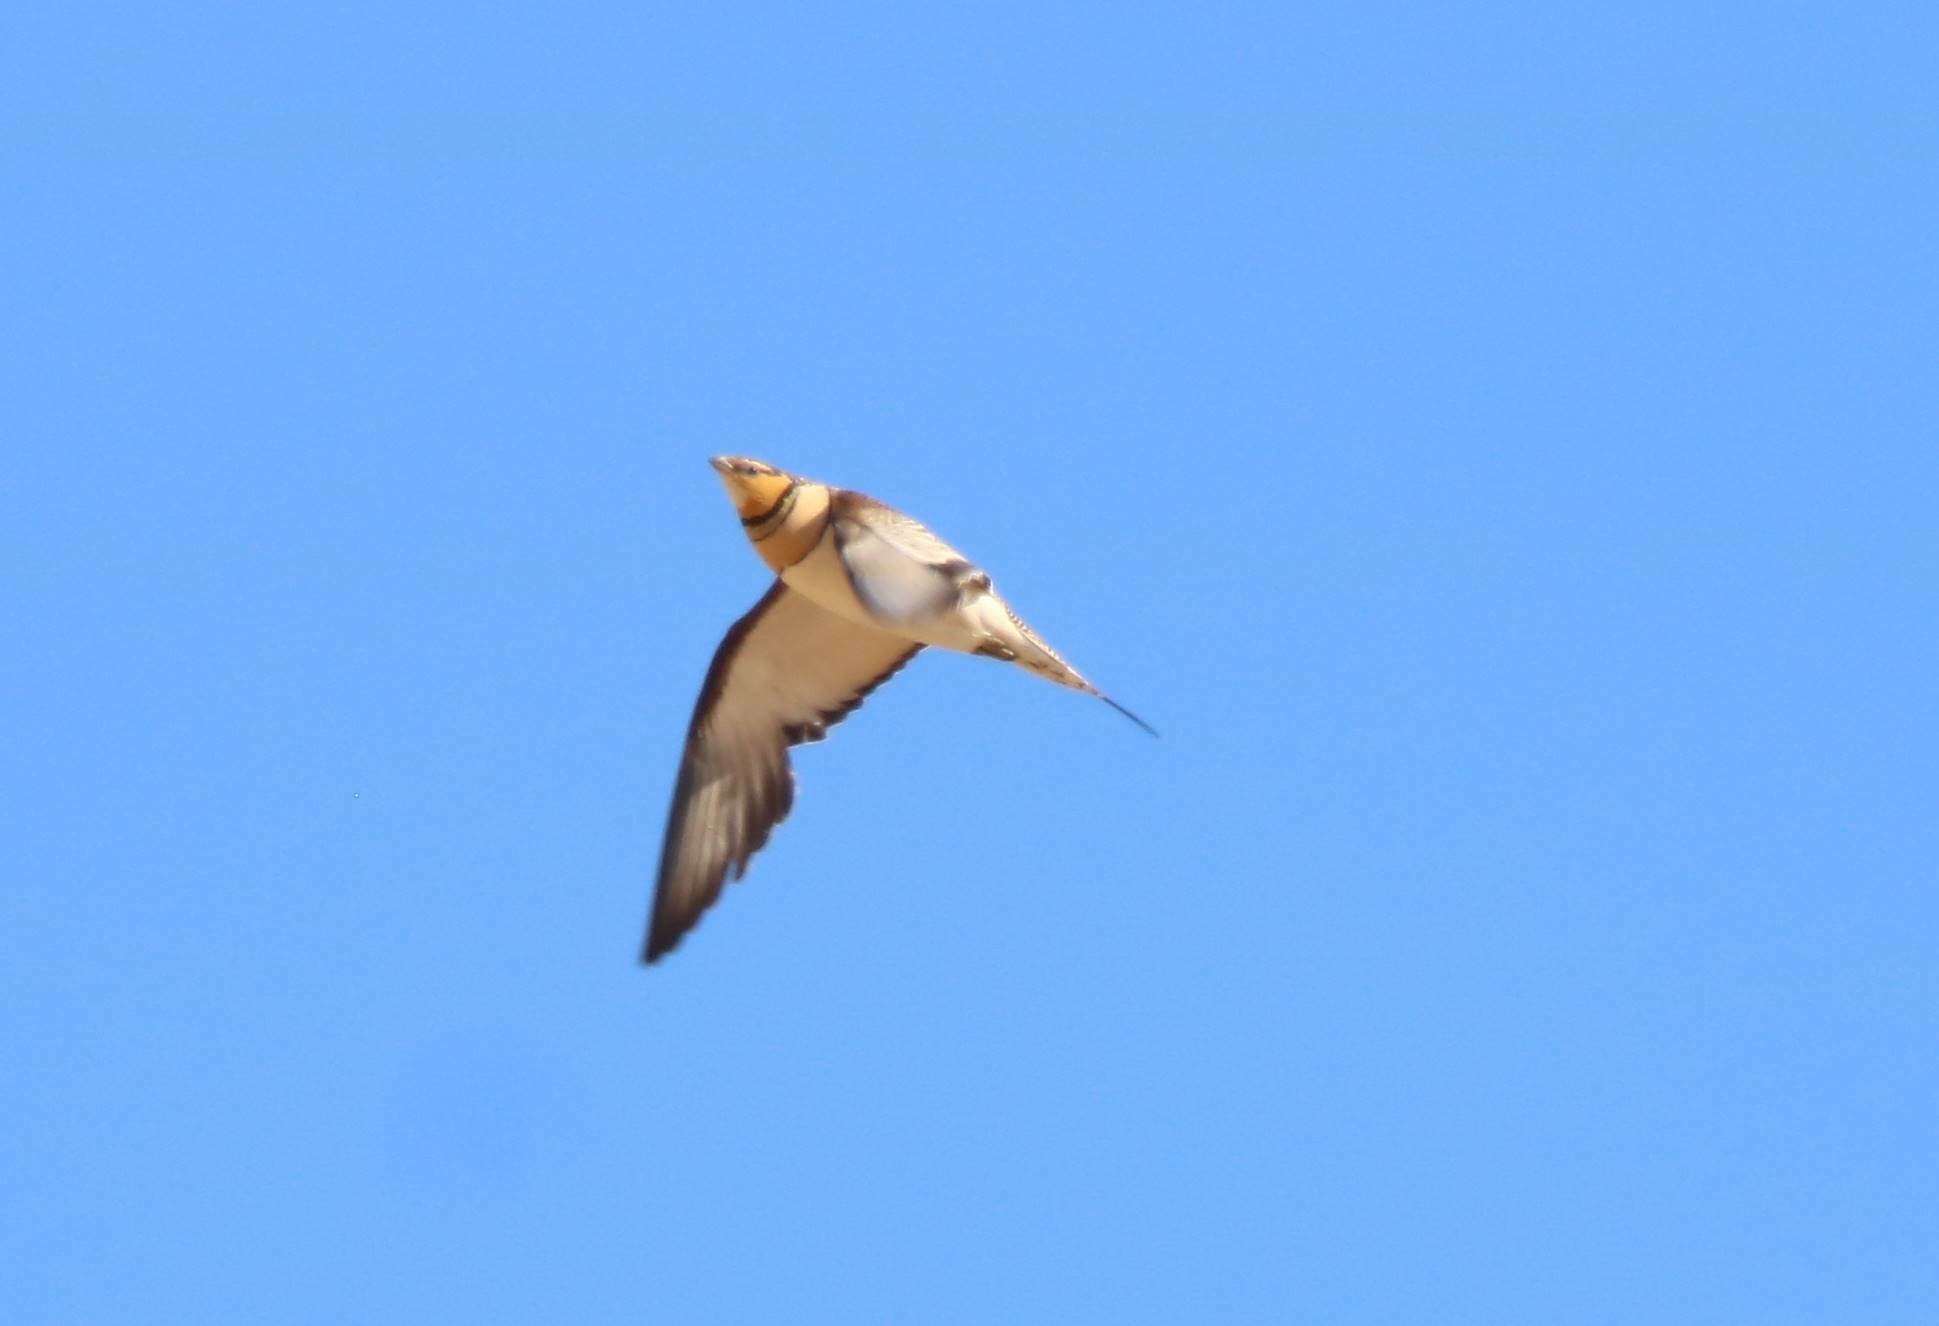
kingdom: Animalia
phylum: Chordata
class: Aves
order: Pteroclidiformes
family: Pteroclididae
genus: Pterocles
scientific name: Pterocles alchata
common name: Pin-tailed sandgrouse
